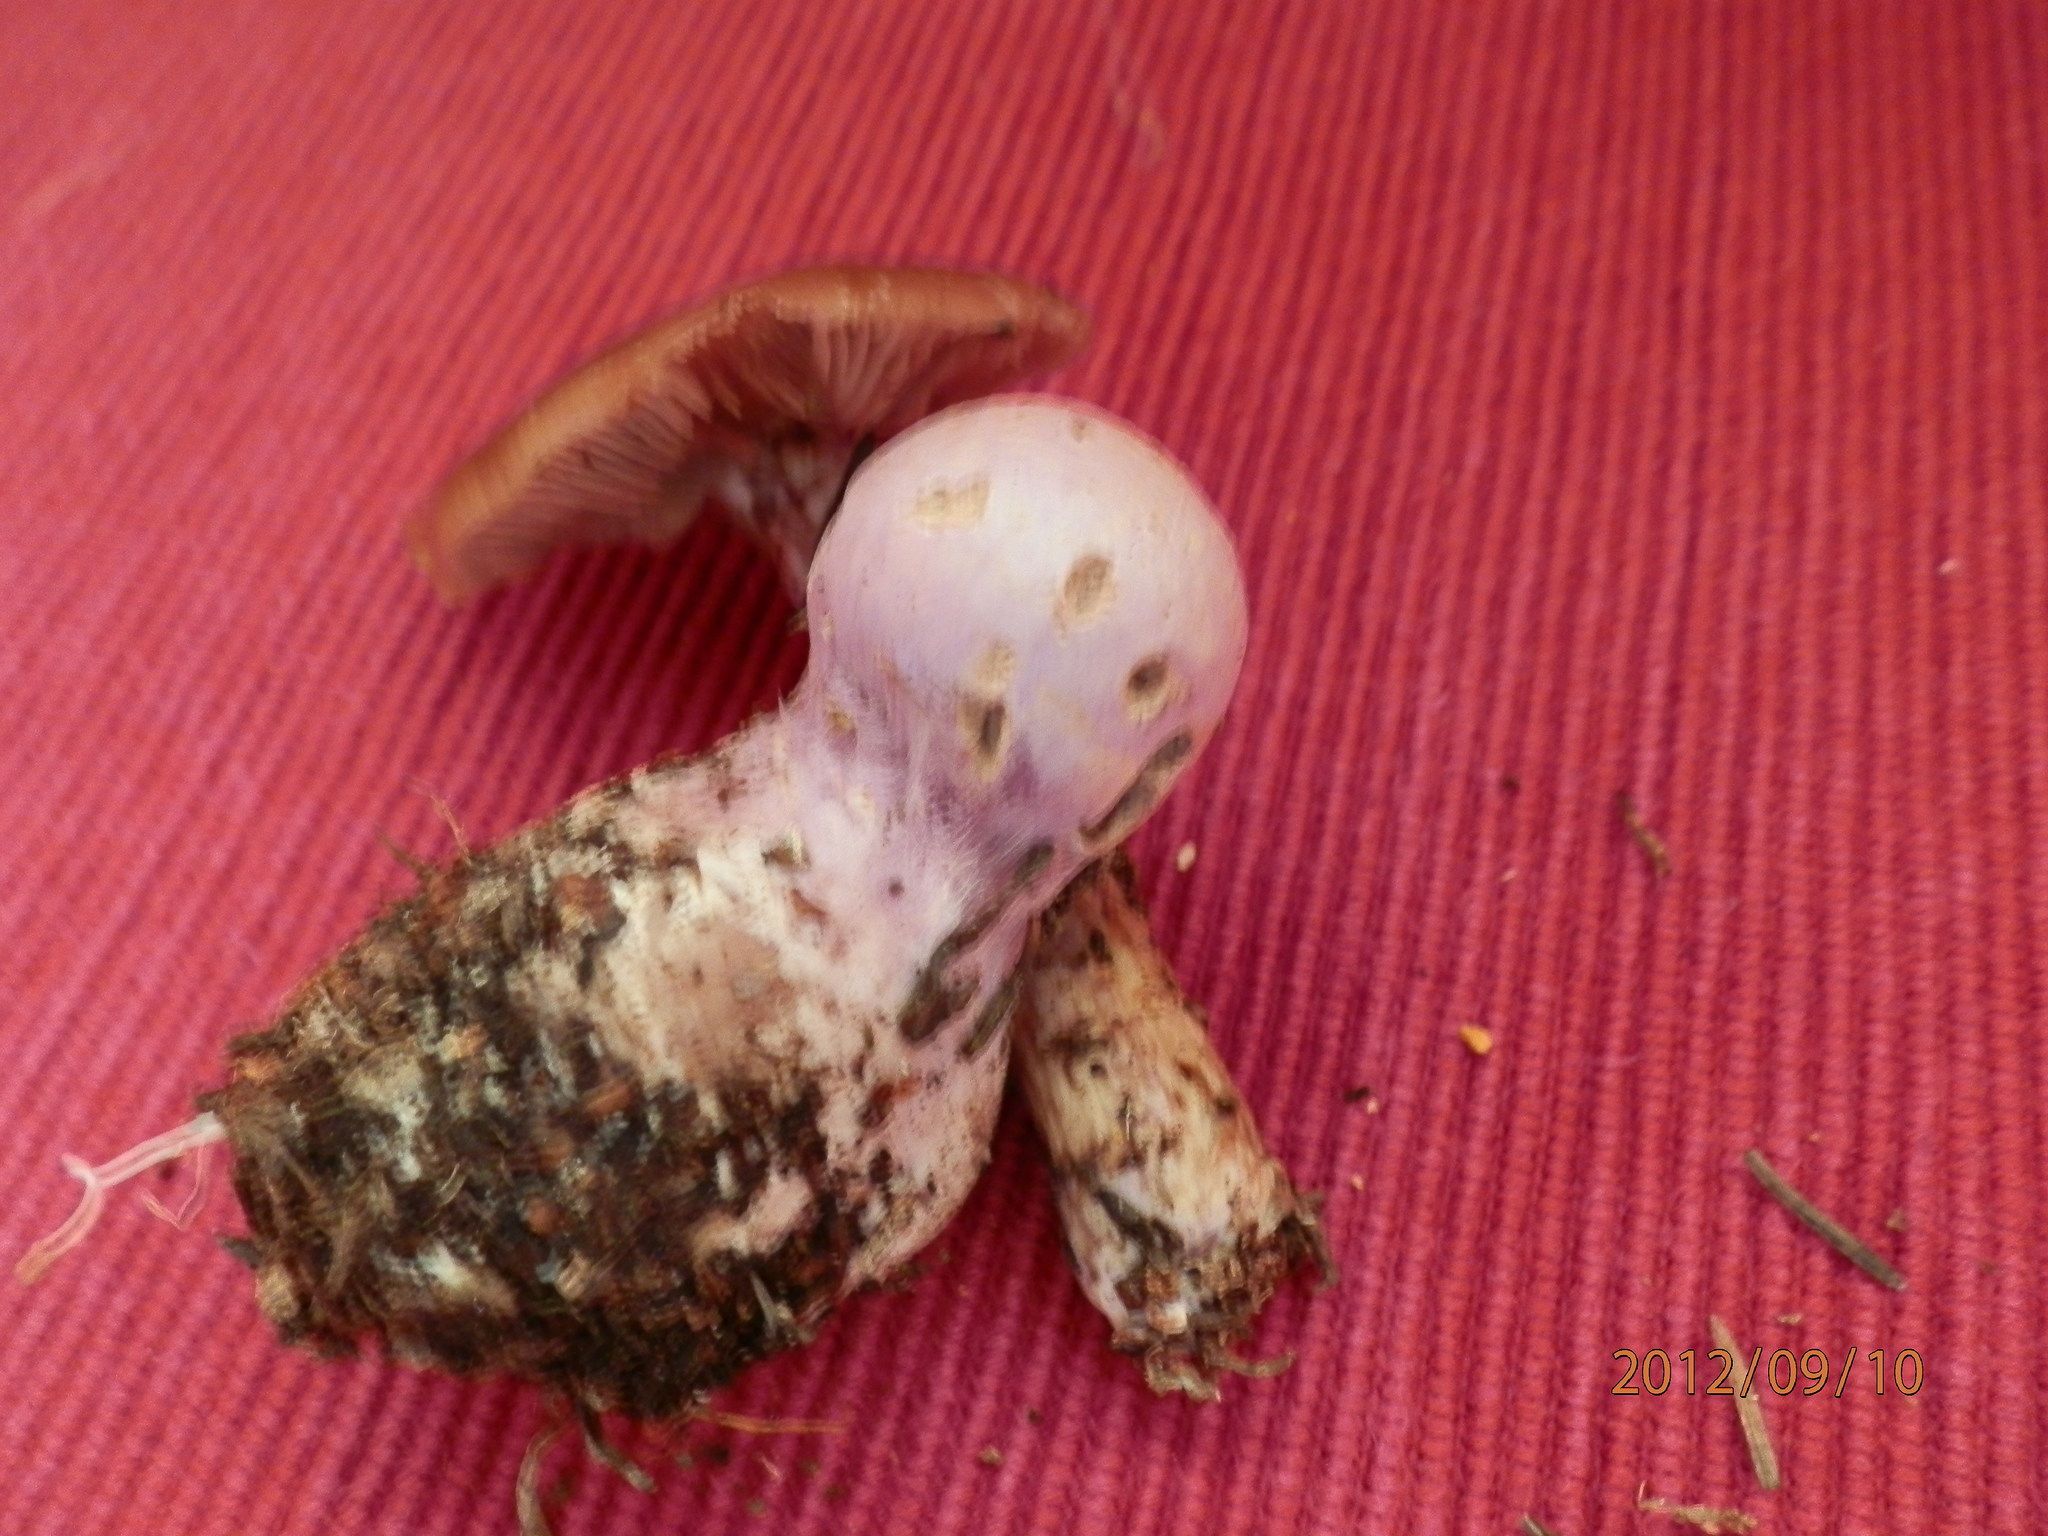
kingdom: Fungi
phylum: Basidiomycota
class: Agaricomycetes
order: Agaricales
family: Cortinariaceae
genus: Cortinarius
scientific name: Cortinarius traganus
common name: Gassy webcap
